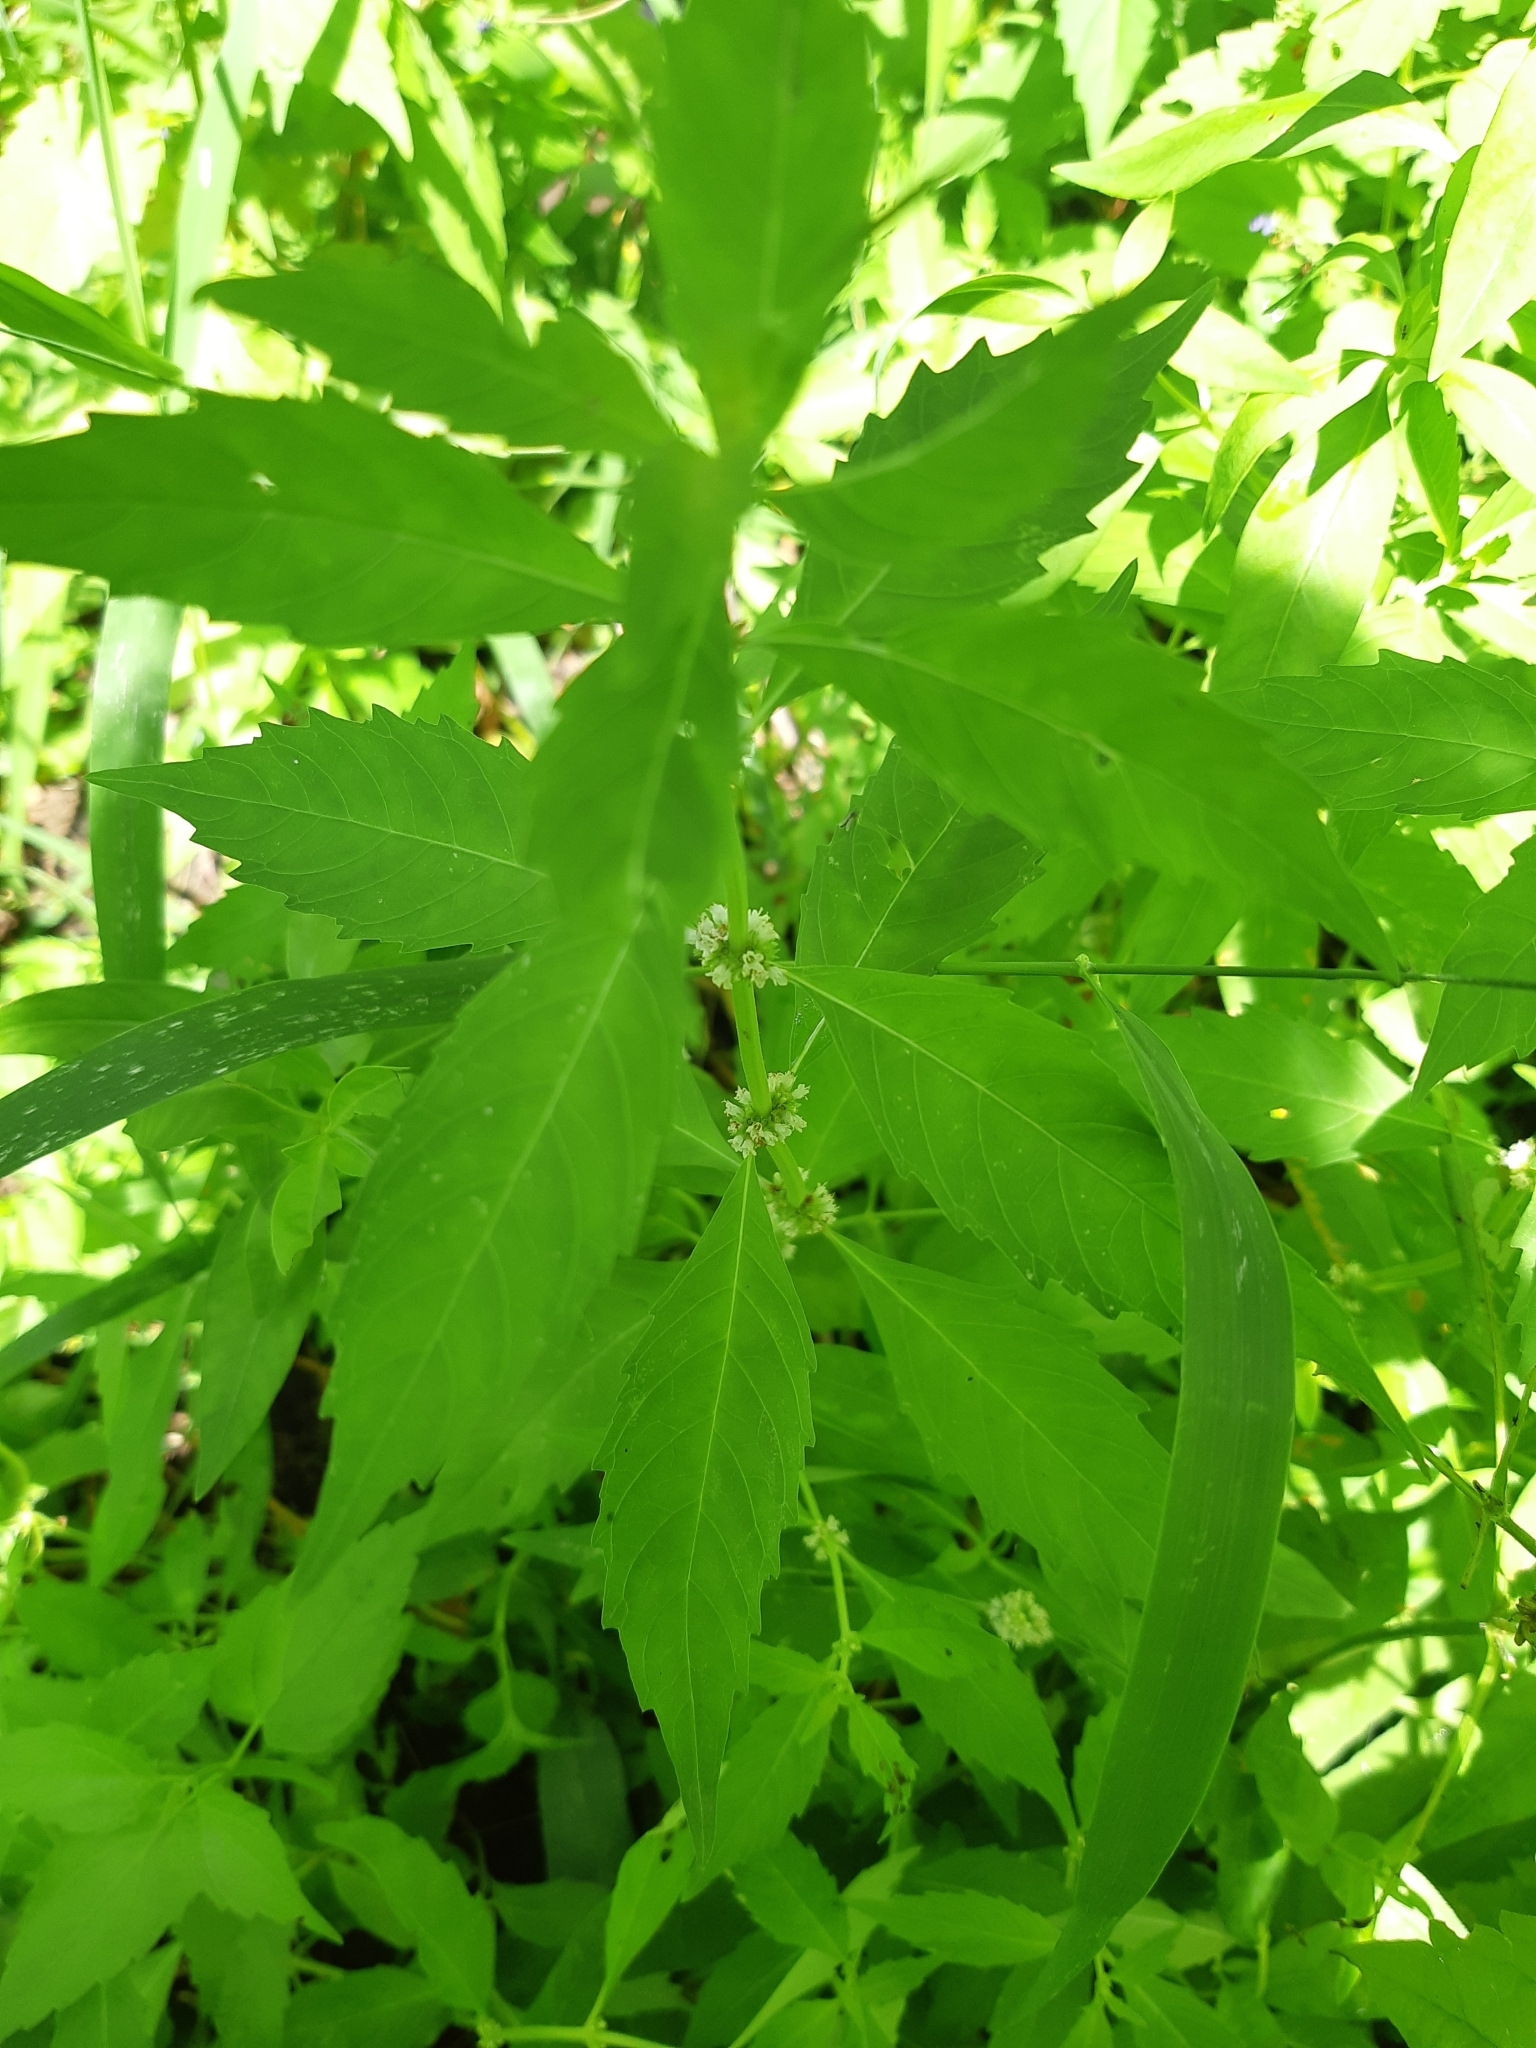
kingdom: Plantae
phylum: Tracheophyta
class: Magnoliopsida
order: Lamiales
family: Lamiaceae
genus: Lycopus
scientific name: Lycopus uniflorus
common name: Northern bugleweed
